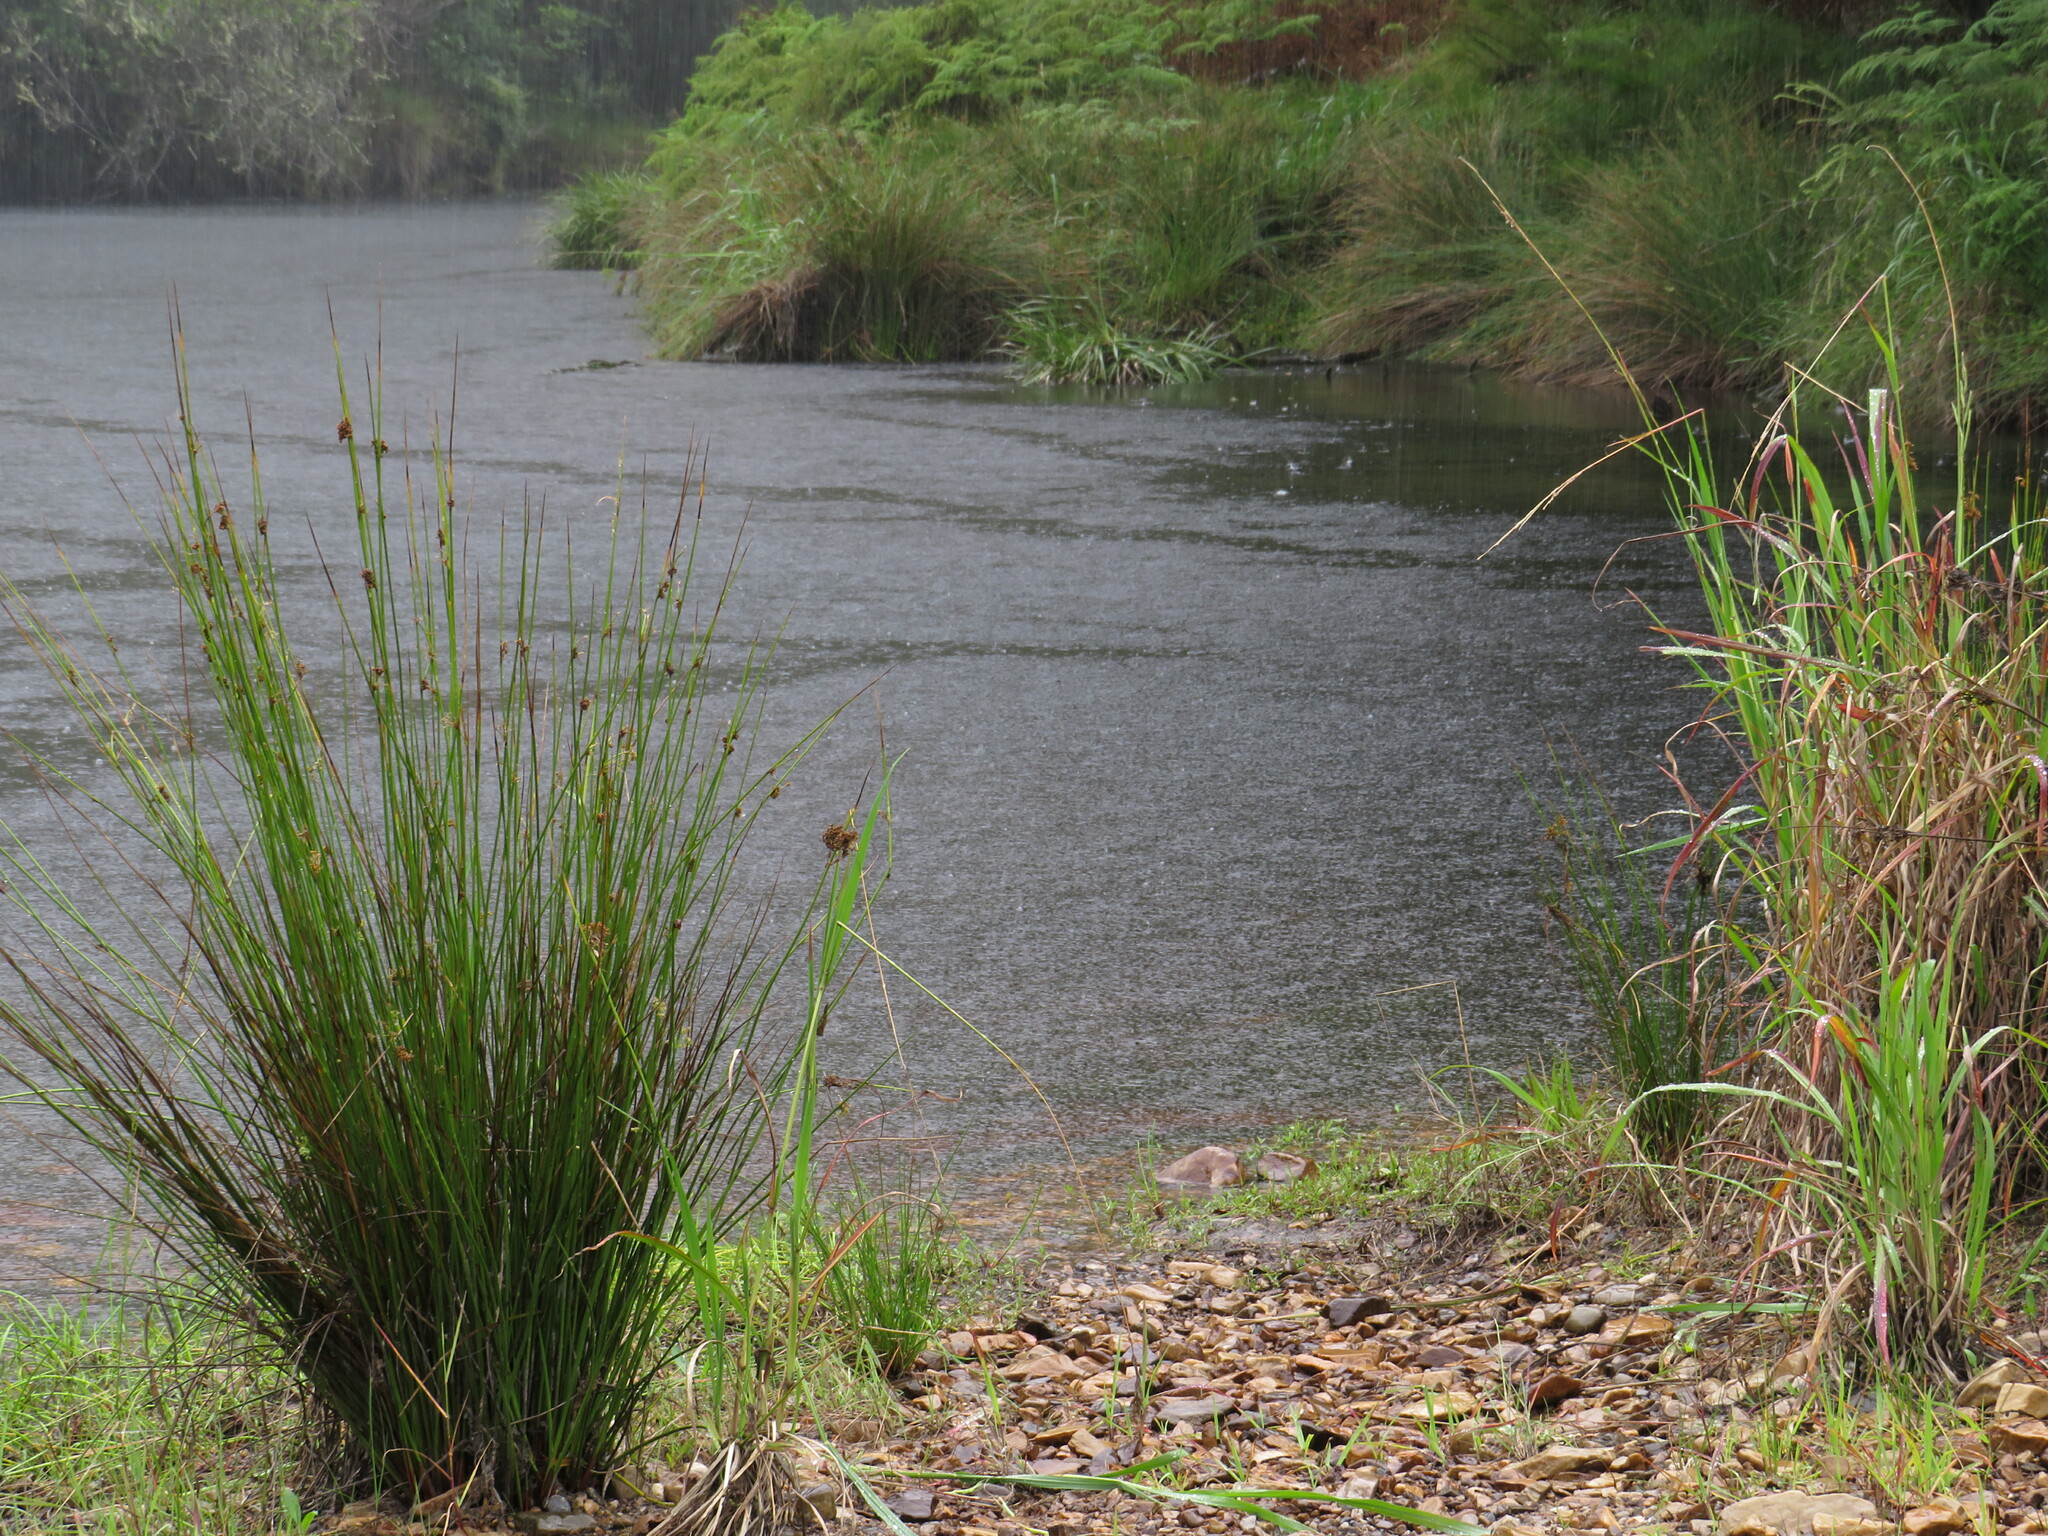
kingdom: Plantae
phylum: Tracheophyta
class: Liliopsida
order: Poales
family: Juncaceae
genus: Juncus
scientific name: Juncus kraussii
